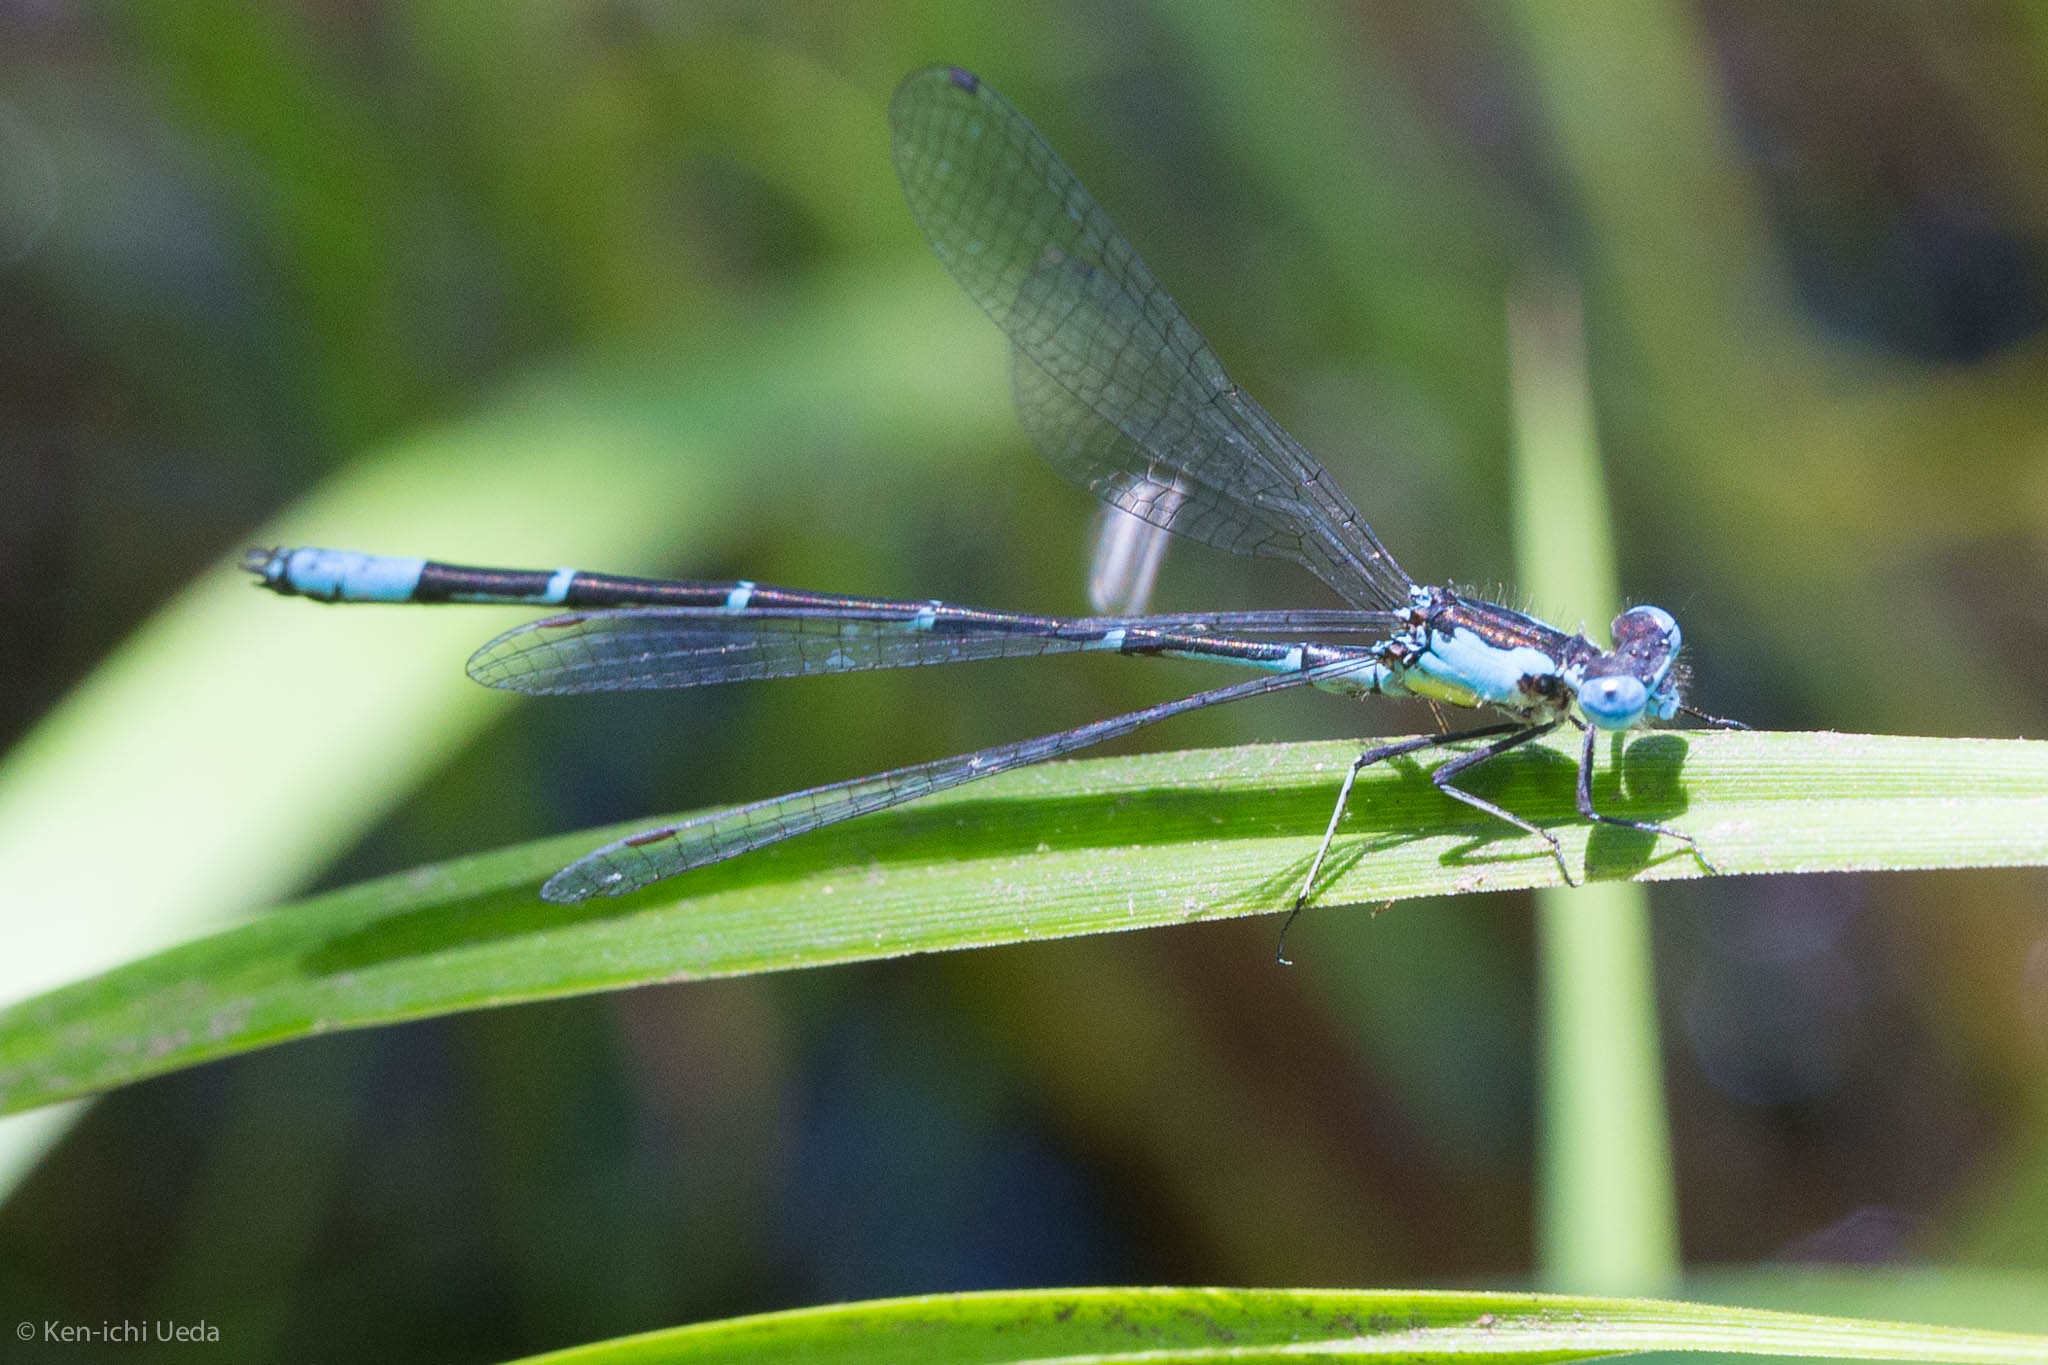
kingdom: Animalia
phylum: Arthropoda
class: Insecta
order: Odonata
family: Coenagrionidae
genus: Chromagrion
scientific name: Chromagrion conditum
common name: Aurora damsel
